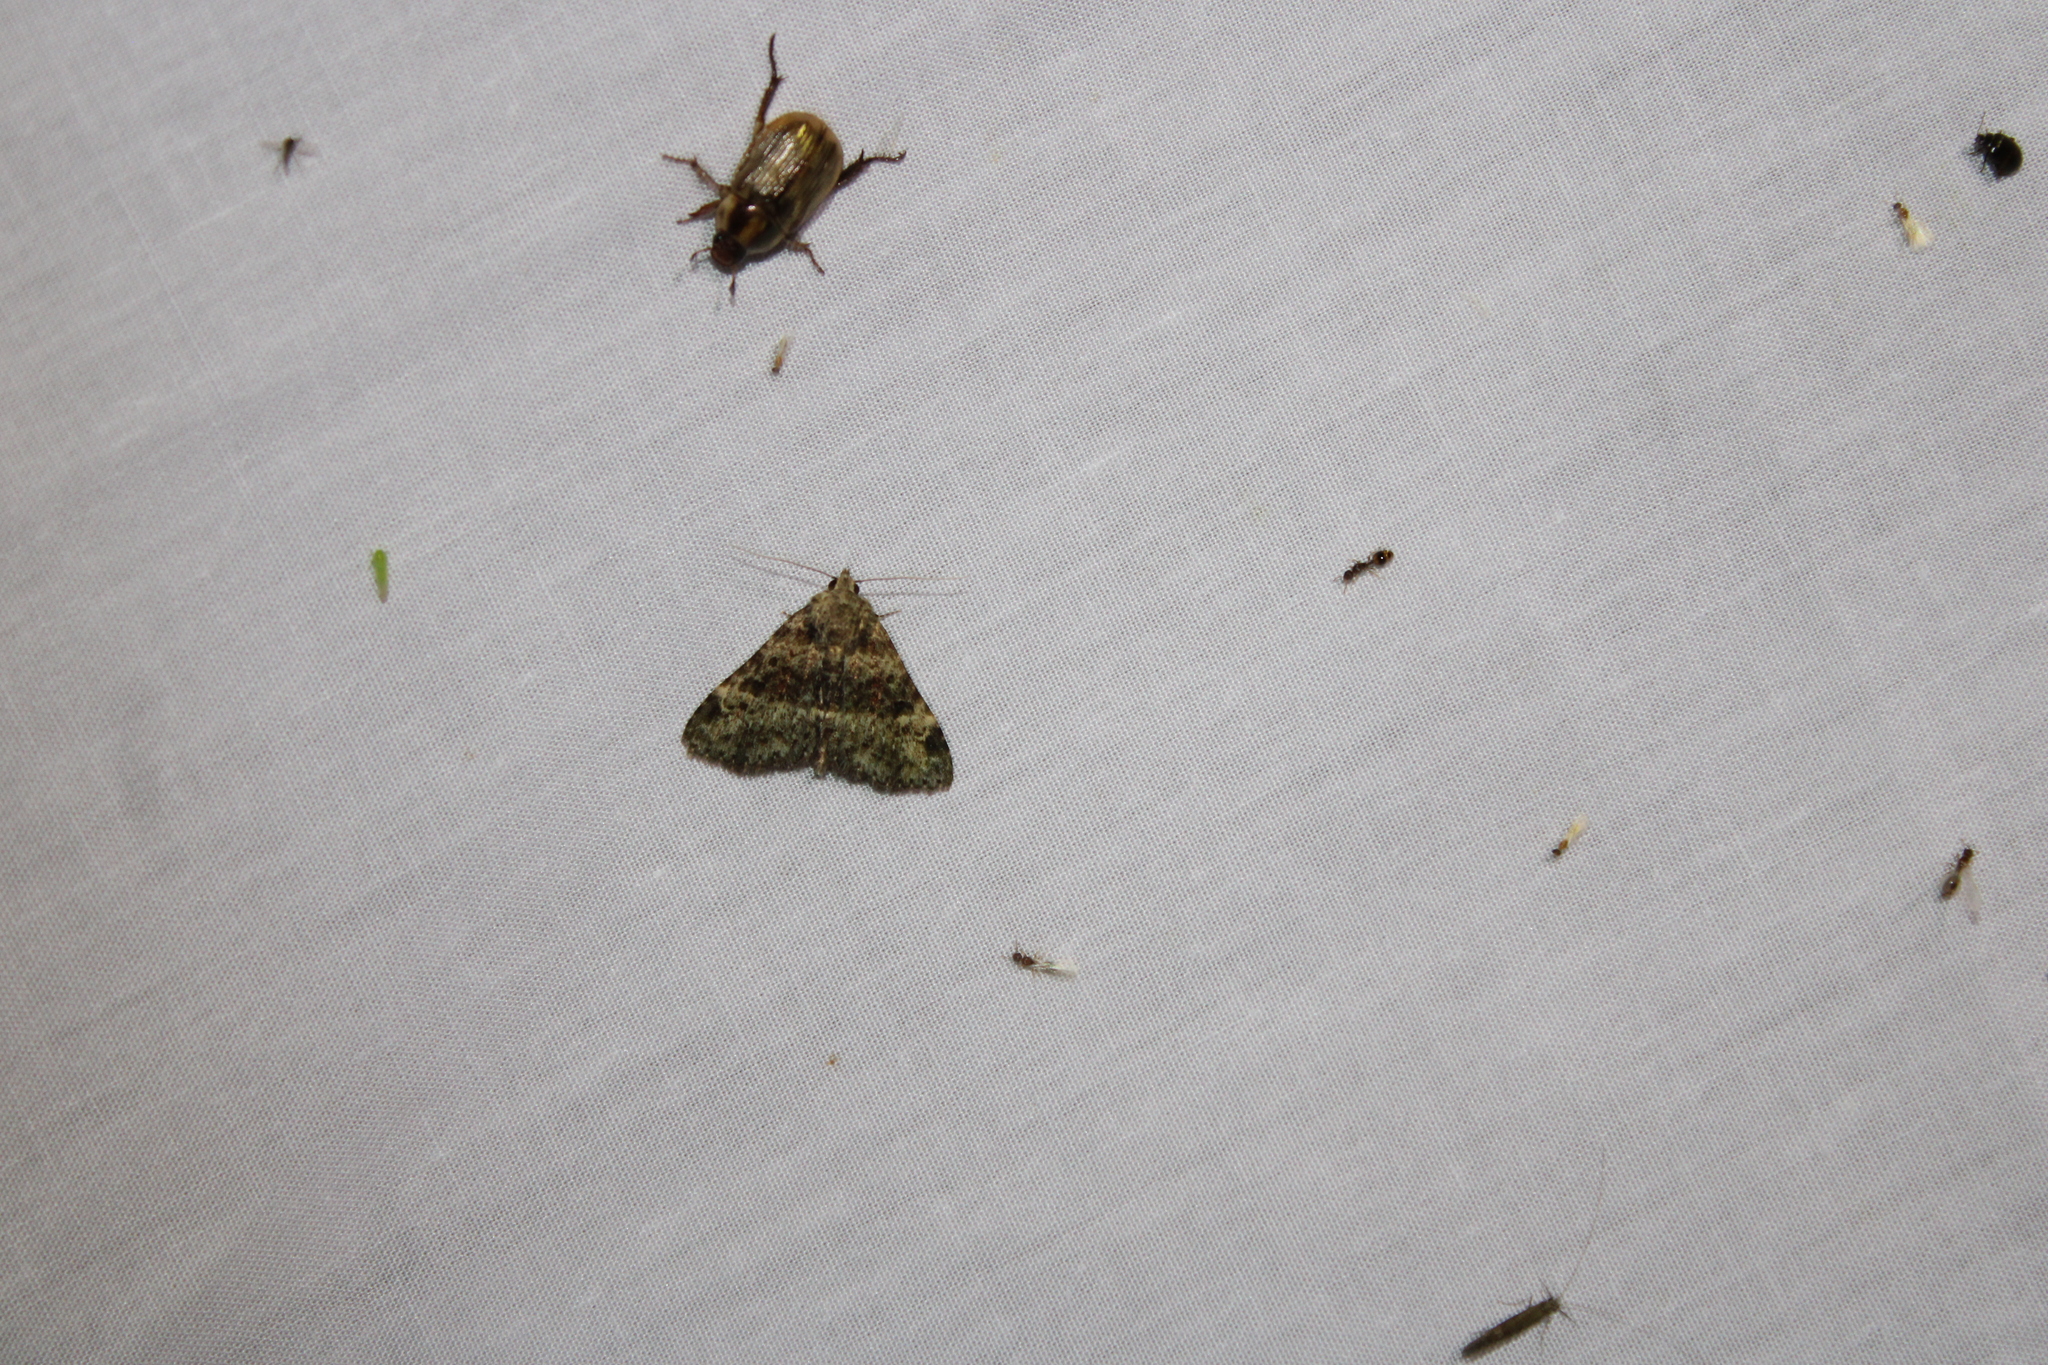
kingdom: Animalia
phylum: Arthropoda
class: Insecta
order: Lepidoptera
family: Erebidae
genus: Metalectra
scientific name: Metalectra discalis
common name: Common fungus moth
